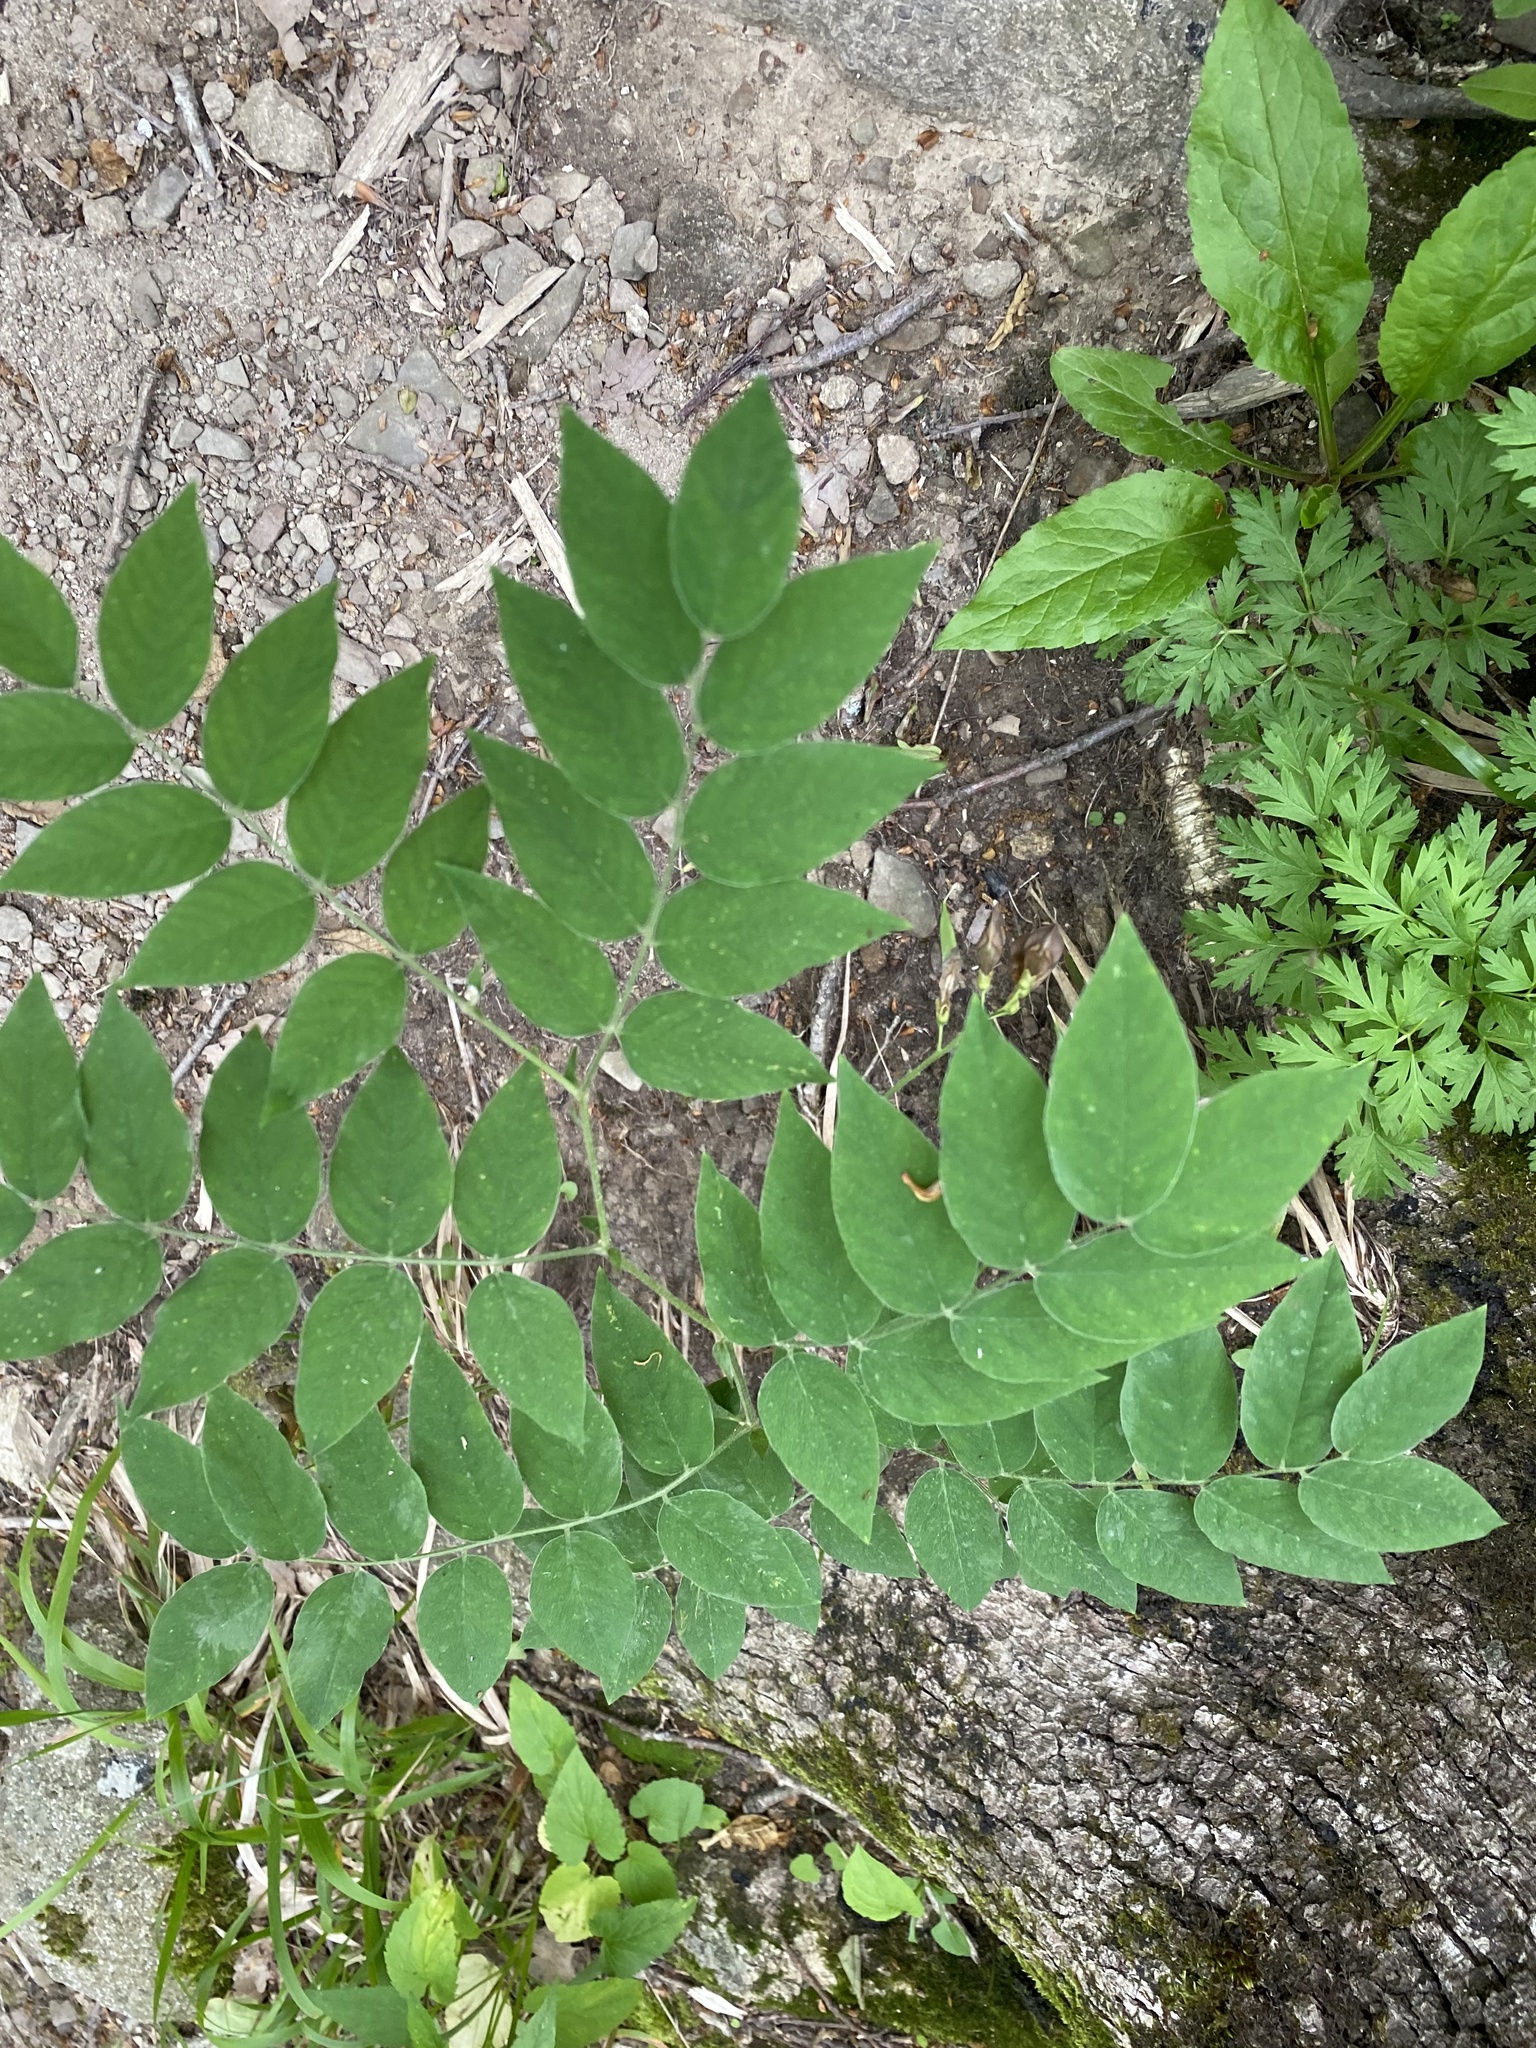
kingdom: Plantae
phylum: Tracheophyta
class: Magnoliopsida
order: Fabales
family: Fabaceae
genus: Vicia
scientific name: Vicia crocea
